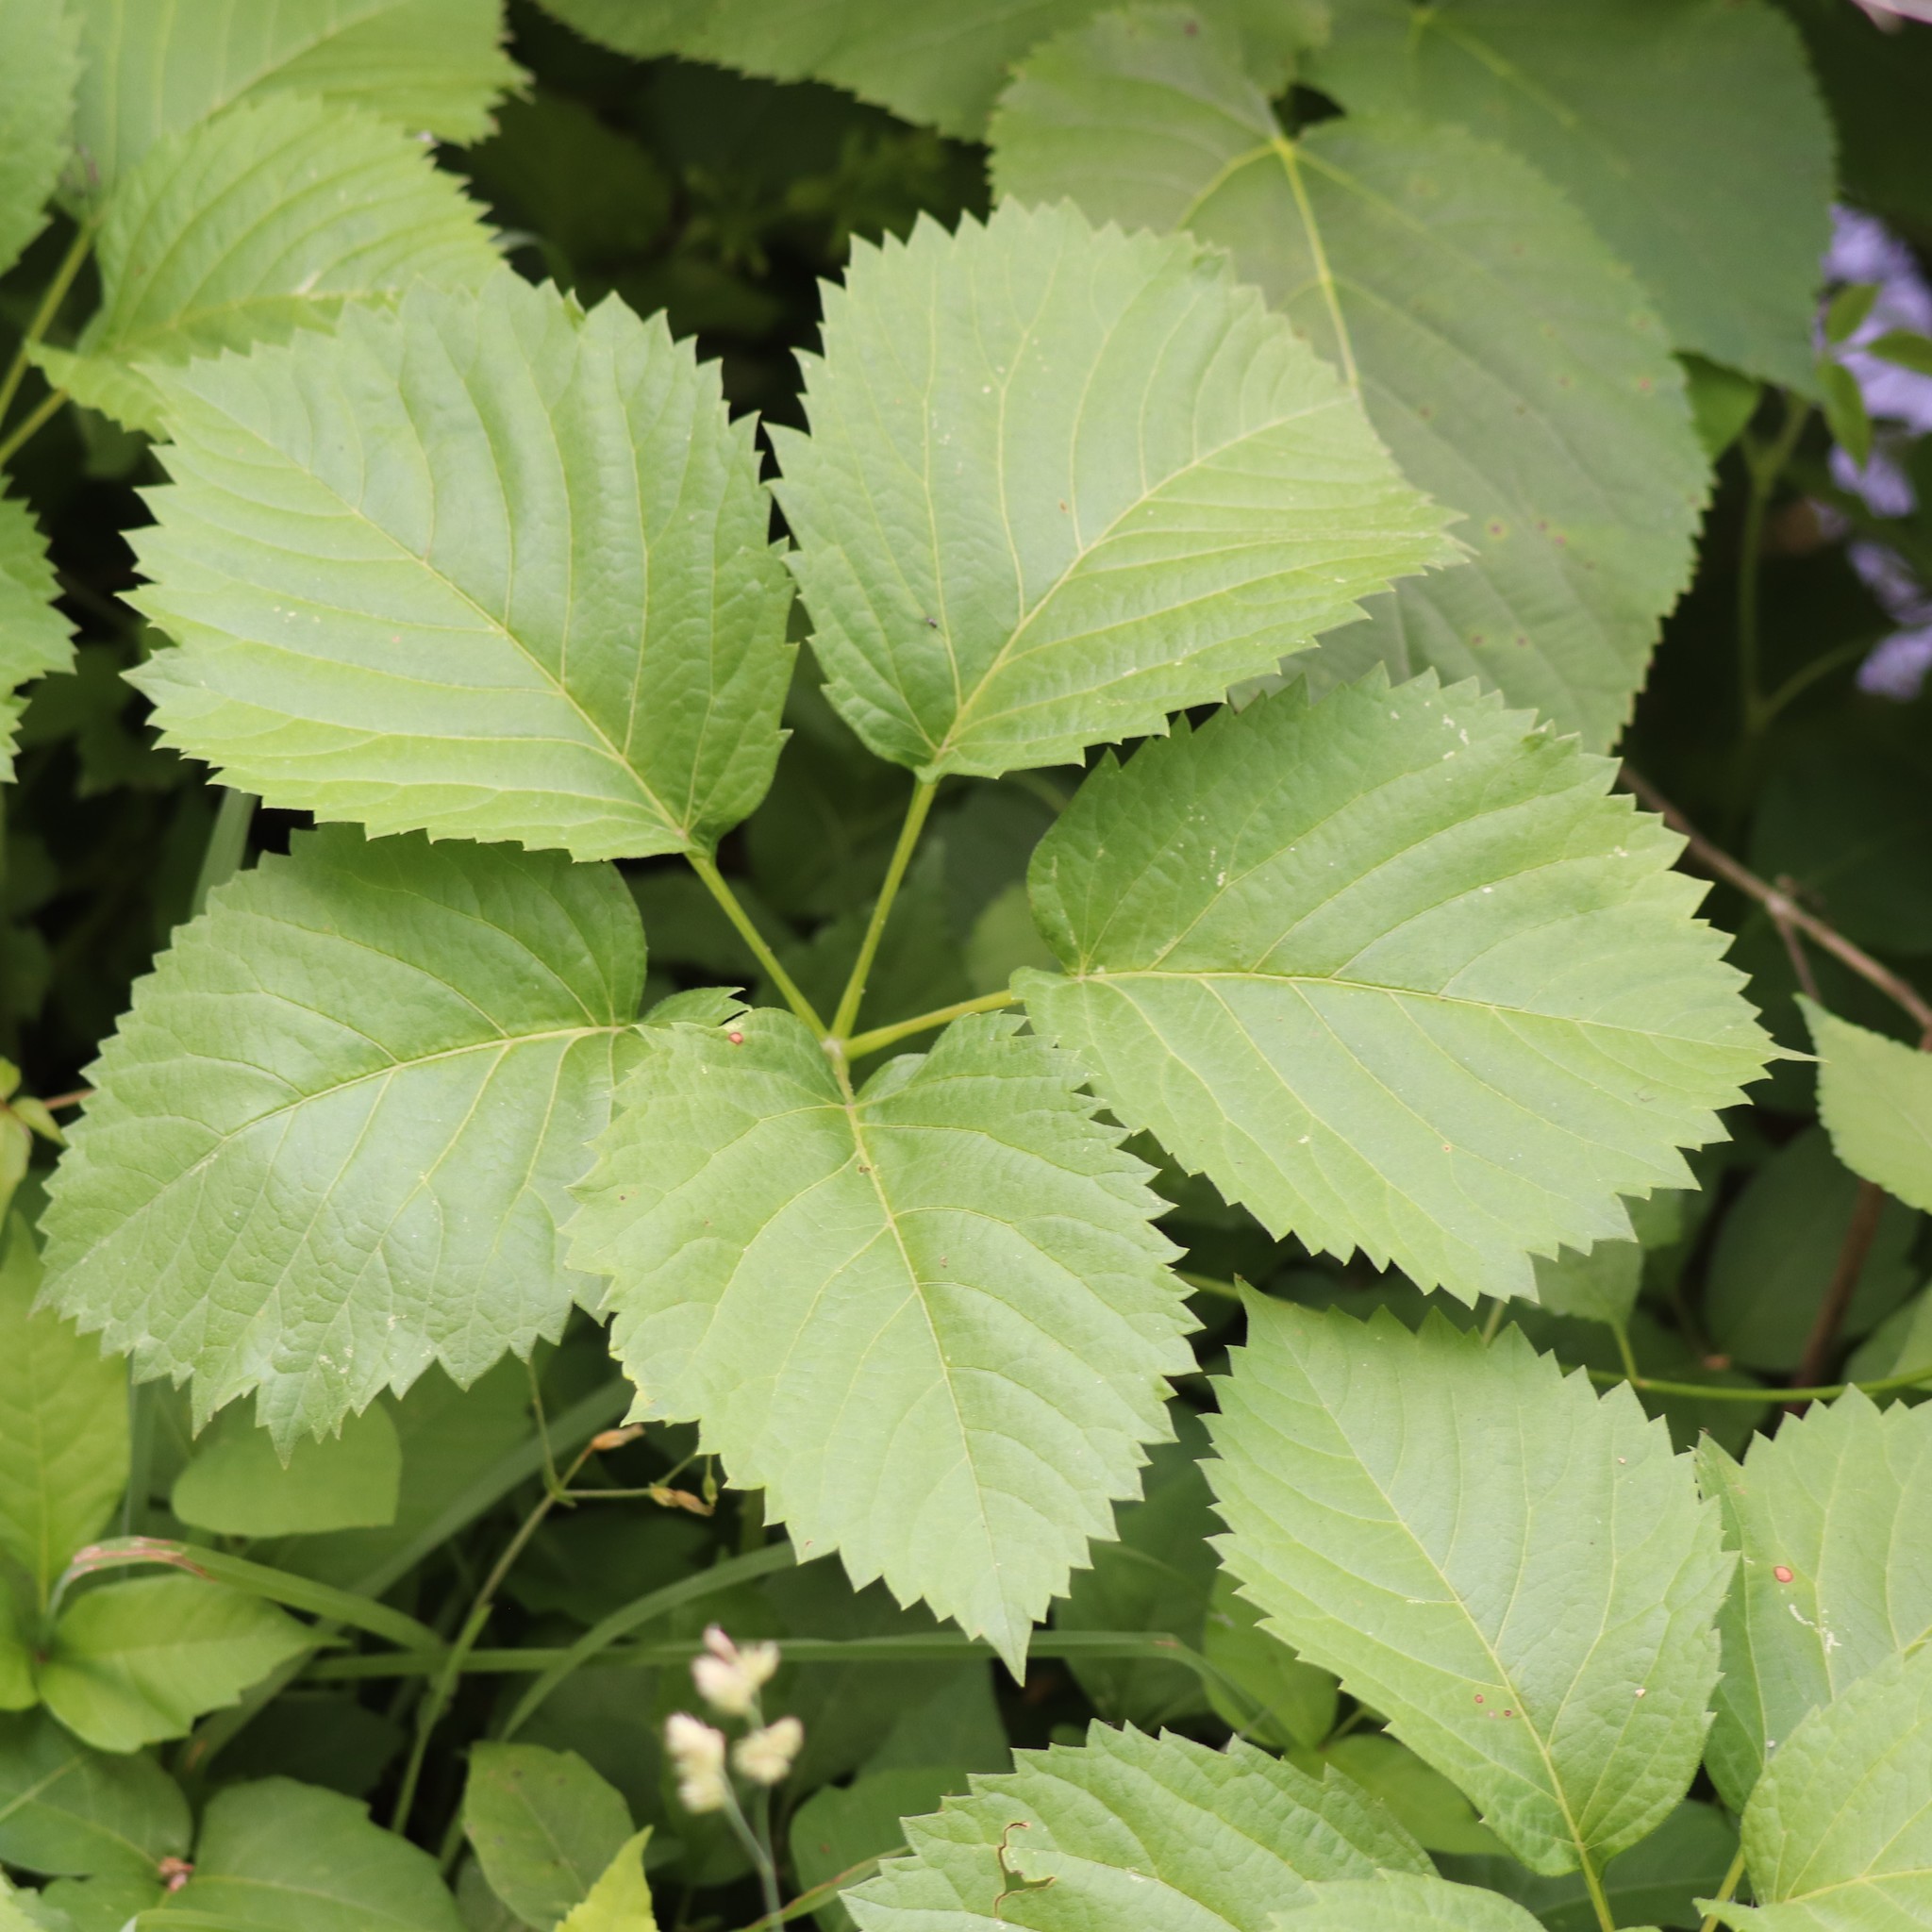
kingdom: Plantae
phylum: Tracheophyta
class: Magnoliopsida
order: Vitales
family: Vitaceae
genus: Parthenocissus
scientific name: Parthenocissus inserta
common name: False virginia-creeper
